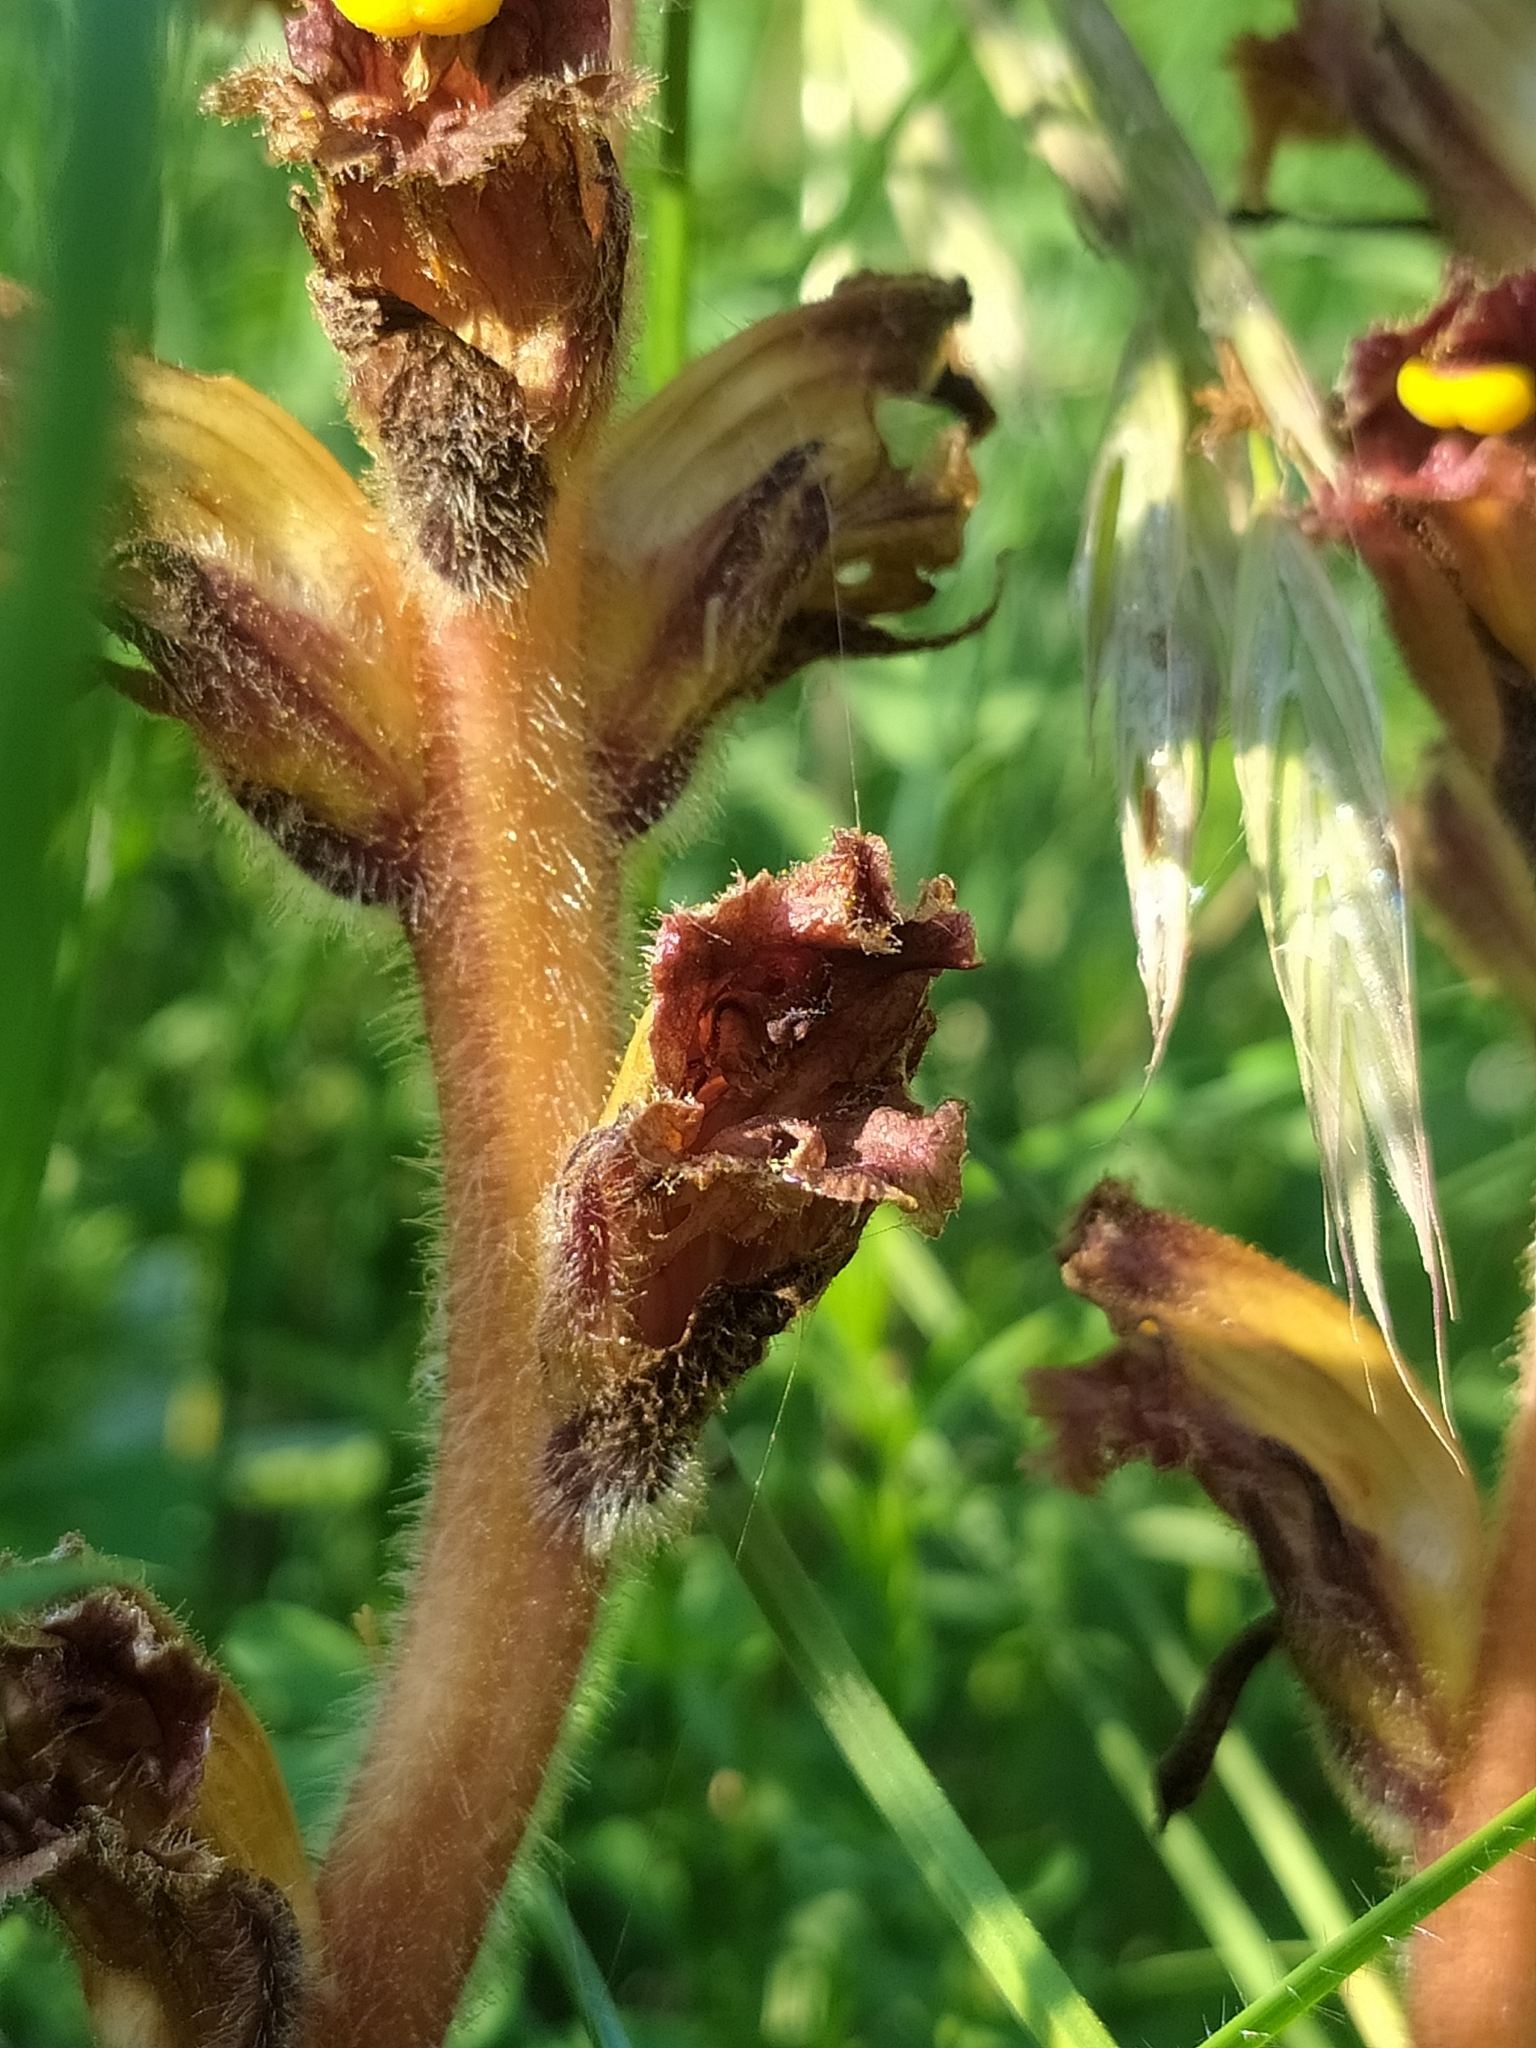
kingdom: Plantae
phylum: Tracheophyta
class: Magnoliopsida
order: Lamiales
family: Orobanchaceae
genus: Orobanche
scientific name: Orobanche gracilis
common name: Slender broomrape
